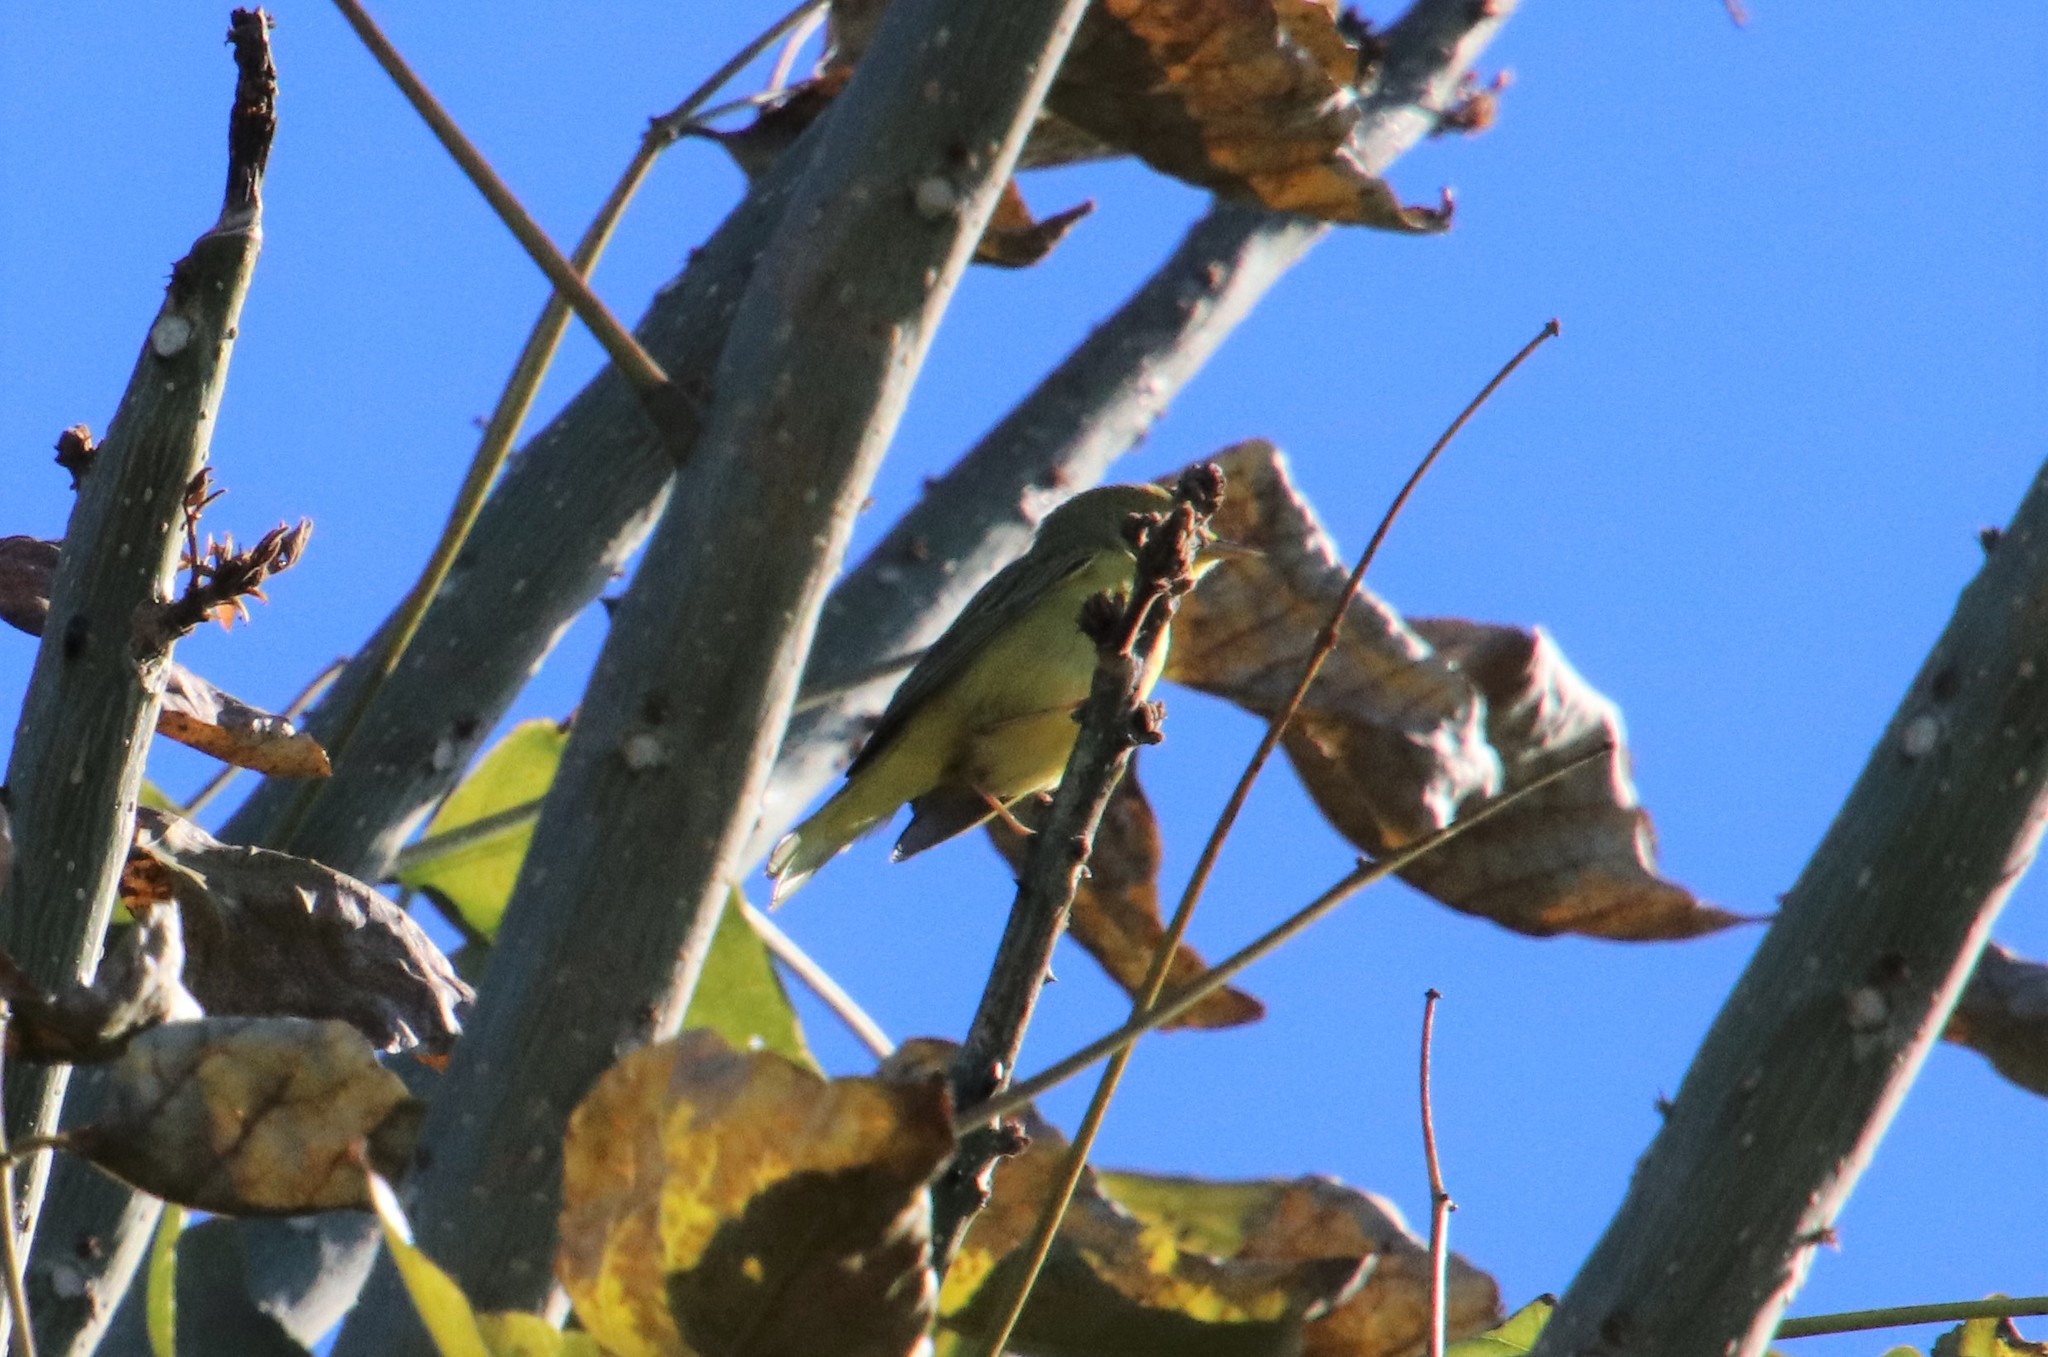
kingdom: Animalia
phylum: Chordata
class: Aves
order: Passeriformes
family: Parulidae
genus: Setophaga
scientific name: Setophaga petechia
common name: Yellow warbler
